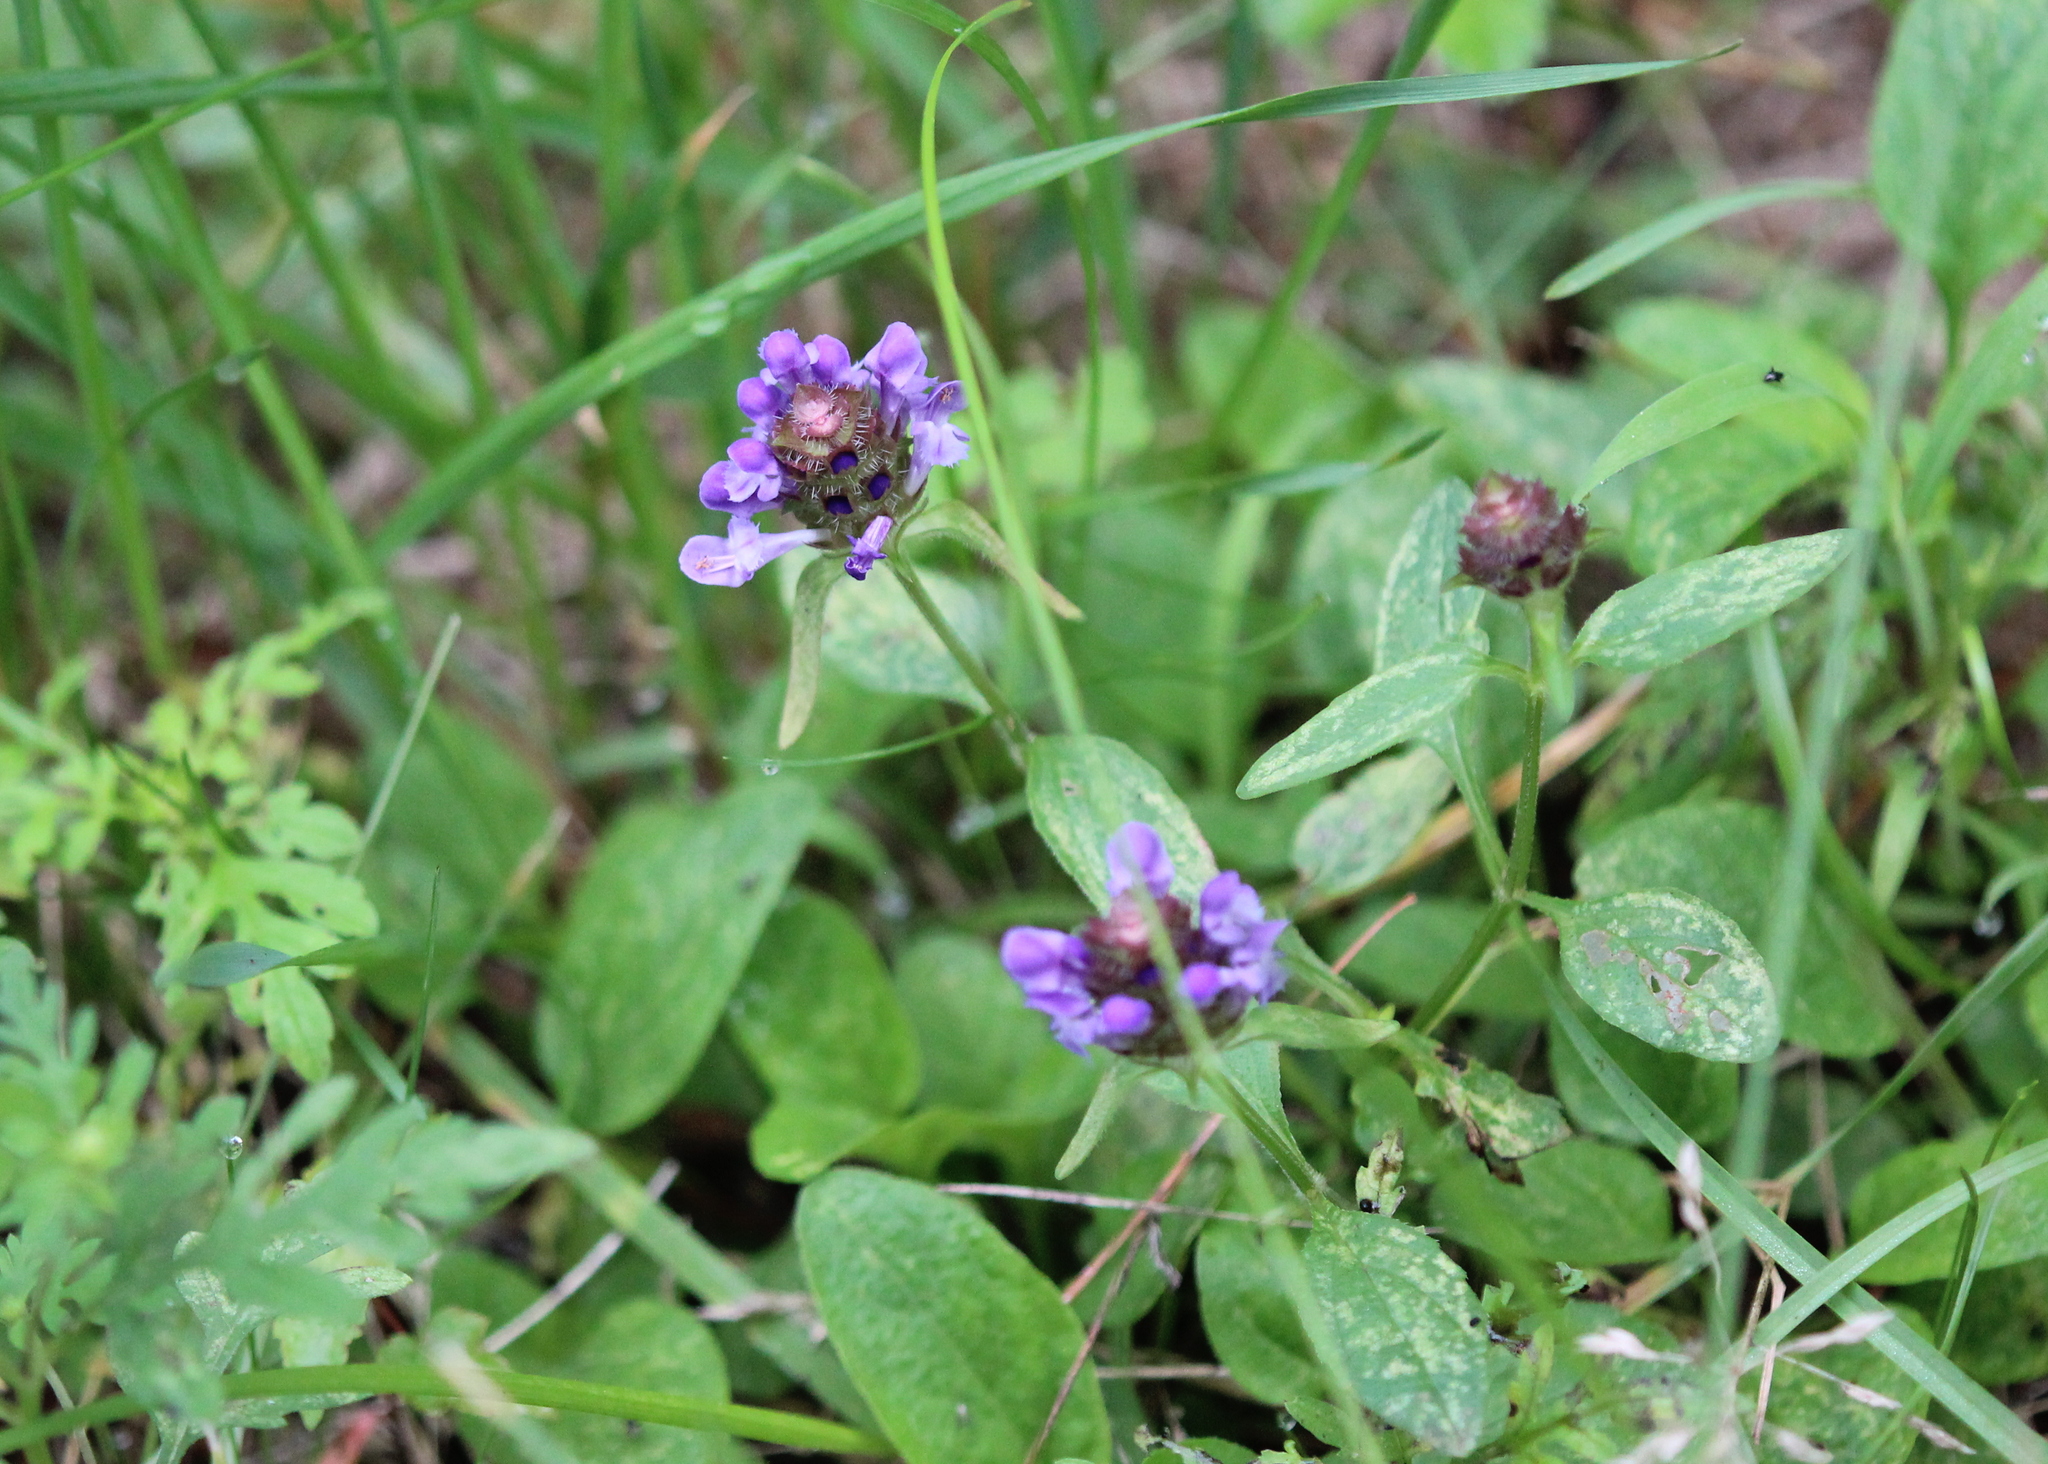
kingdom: Plantae
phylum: Tracheophyta
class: Magnoliopsida
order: Lamiales
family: Lamiaceae
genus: Prunella
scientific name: Prunella vulgaris
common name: Heal-all
